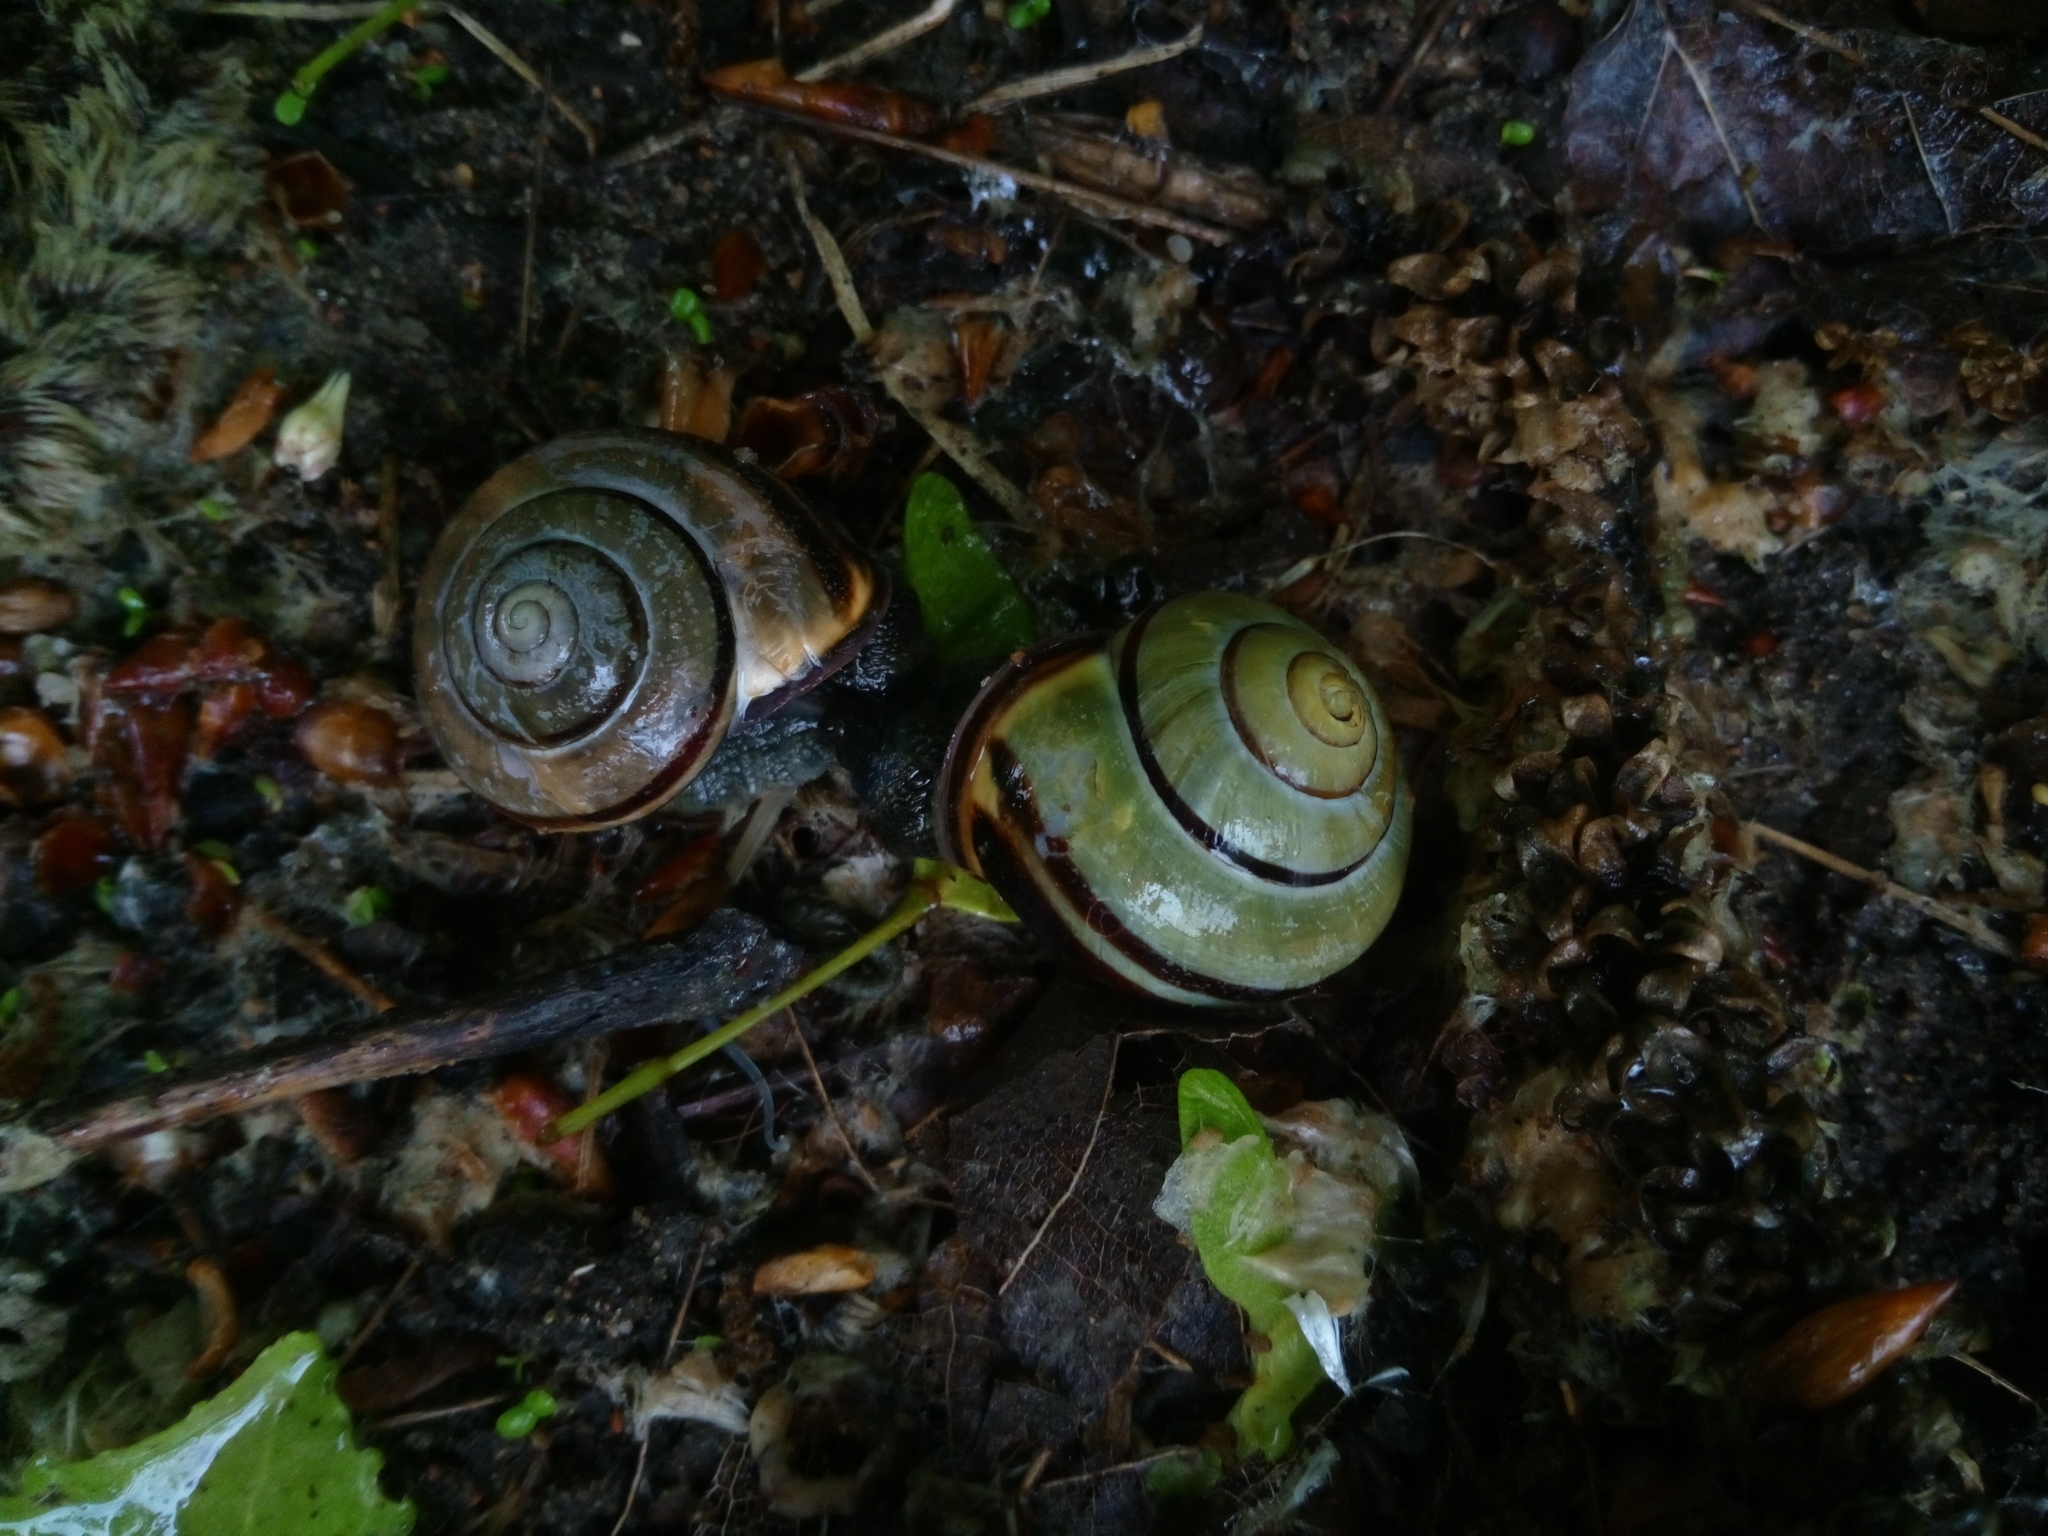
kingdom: Animalia
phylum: Mollusca
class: Gastropoda
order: Stylommatophora
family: Helicidae
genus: Cepaea
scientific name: Cepaea nemoralis
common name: Grovesnail
